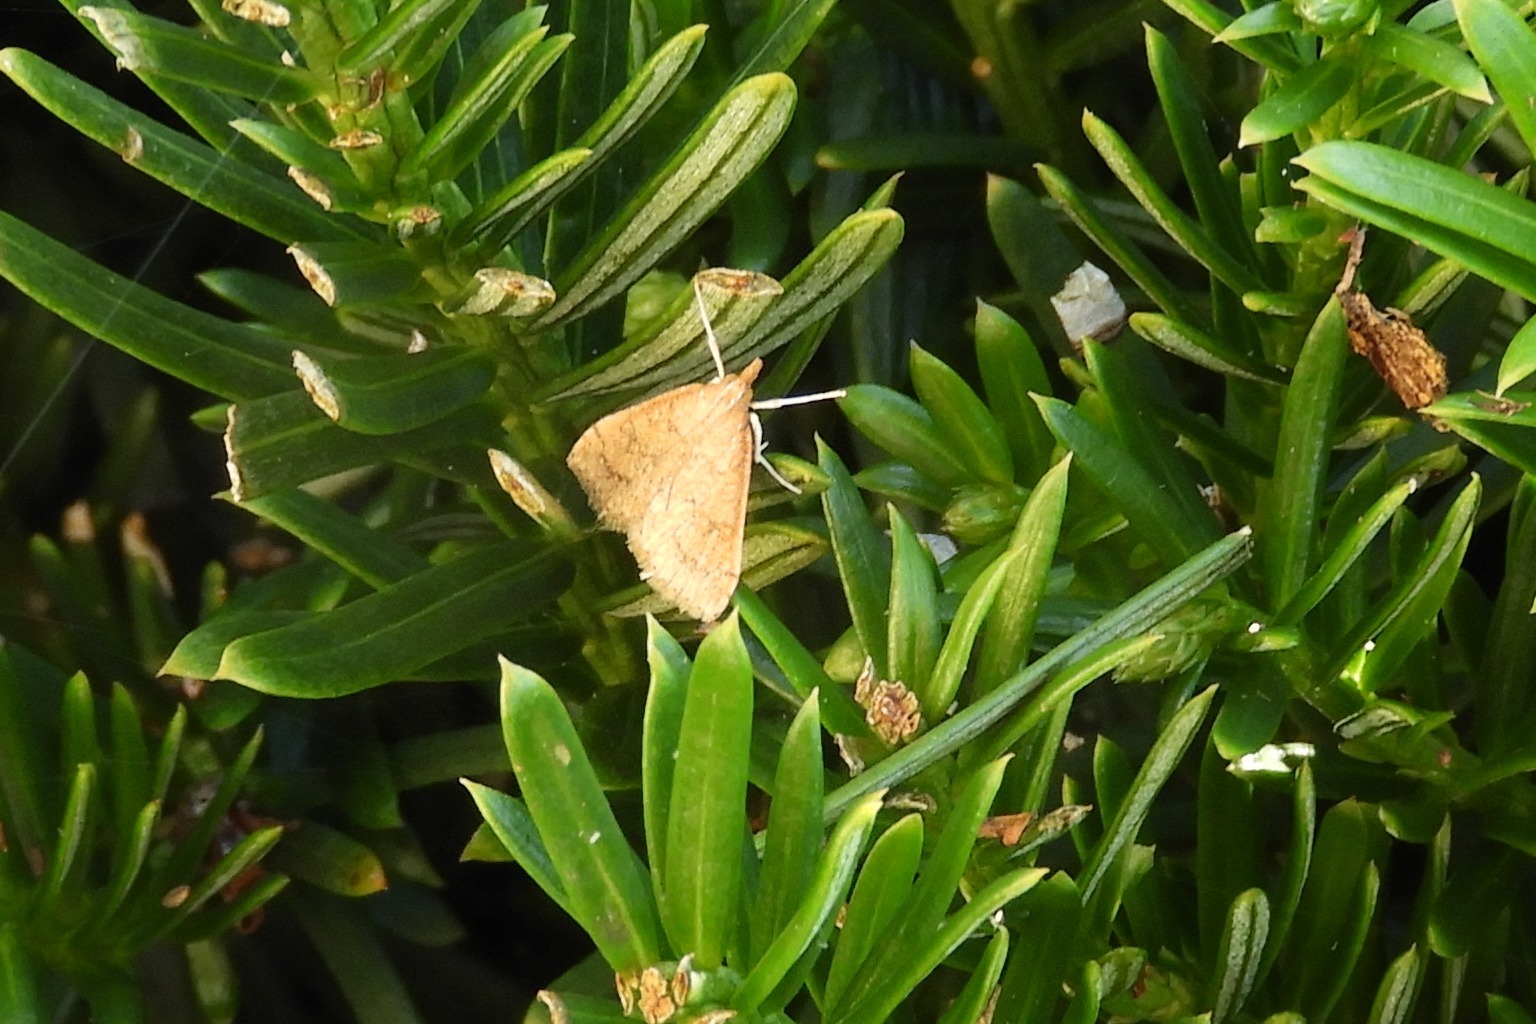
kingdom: Animalia
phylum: Arthropoda
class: Insecta
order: Lepidoptera
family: Crambidae
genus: Udea
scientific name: Udea rubigalis
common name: Celery leaftier moth
